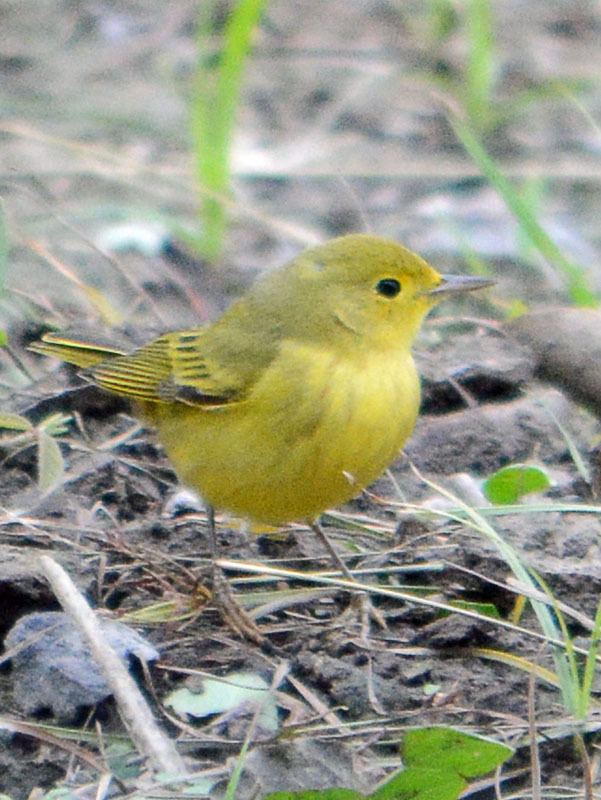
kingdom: Animalia
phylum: Chordata
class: Aves
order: Passeriformes
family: Parulidae
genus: Setophaga
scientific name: Setophaga petechia
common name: Yellow warbler
